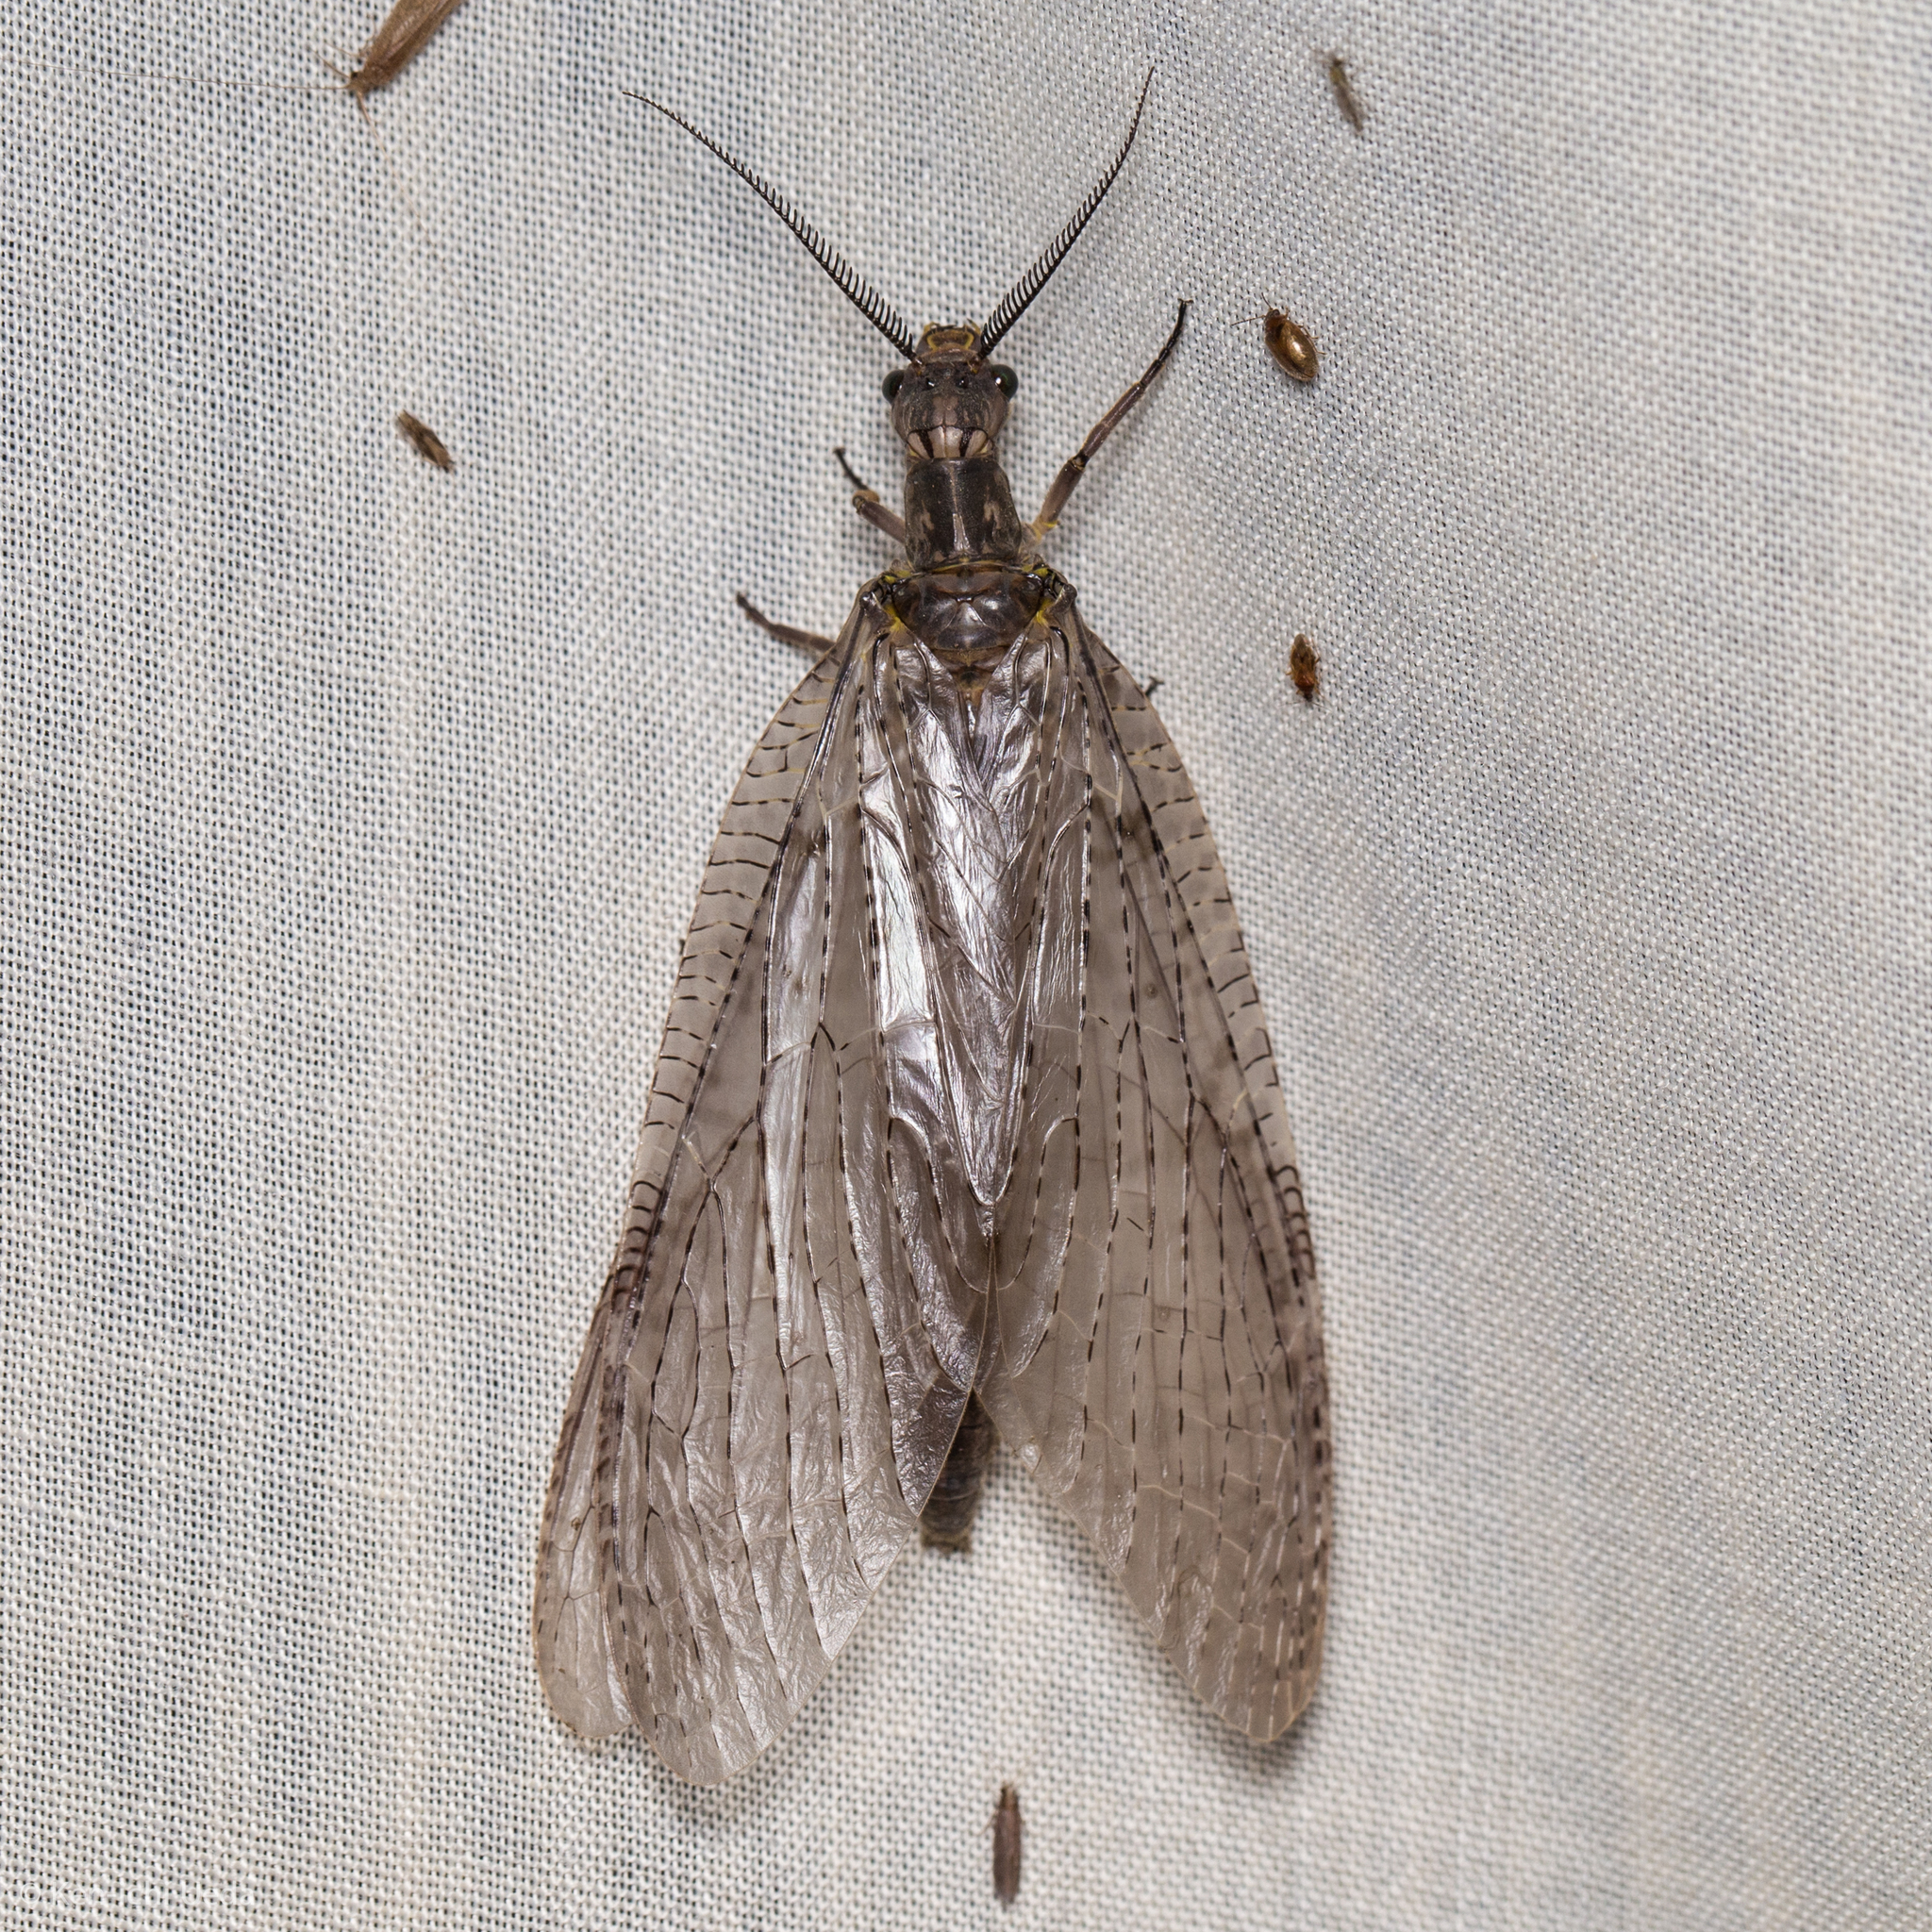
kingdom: Animalia
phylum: Arthropoda
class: Insecta
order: Megaloptera
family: Corydalidae
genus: Chauliodes
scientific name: Chauliodes pectinicornis
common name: Summer fishfly
